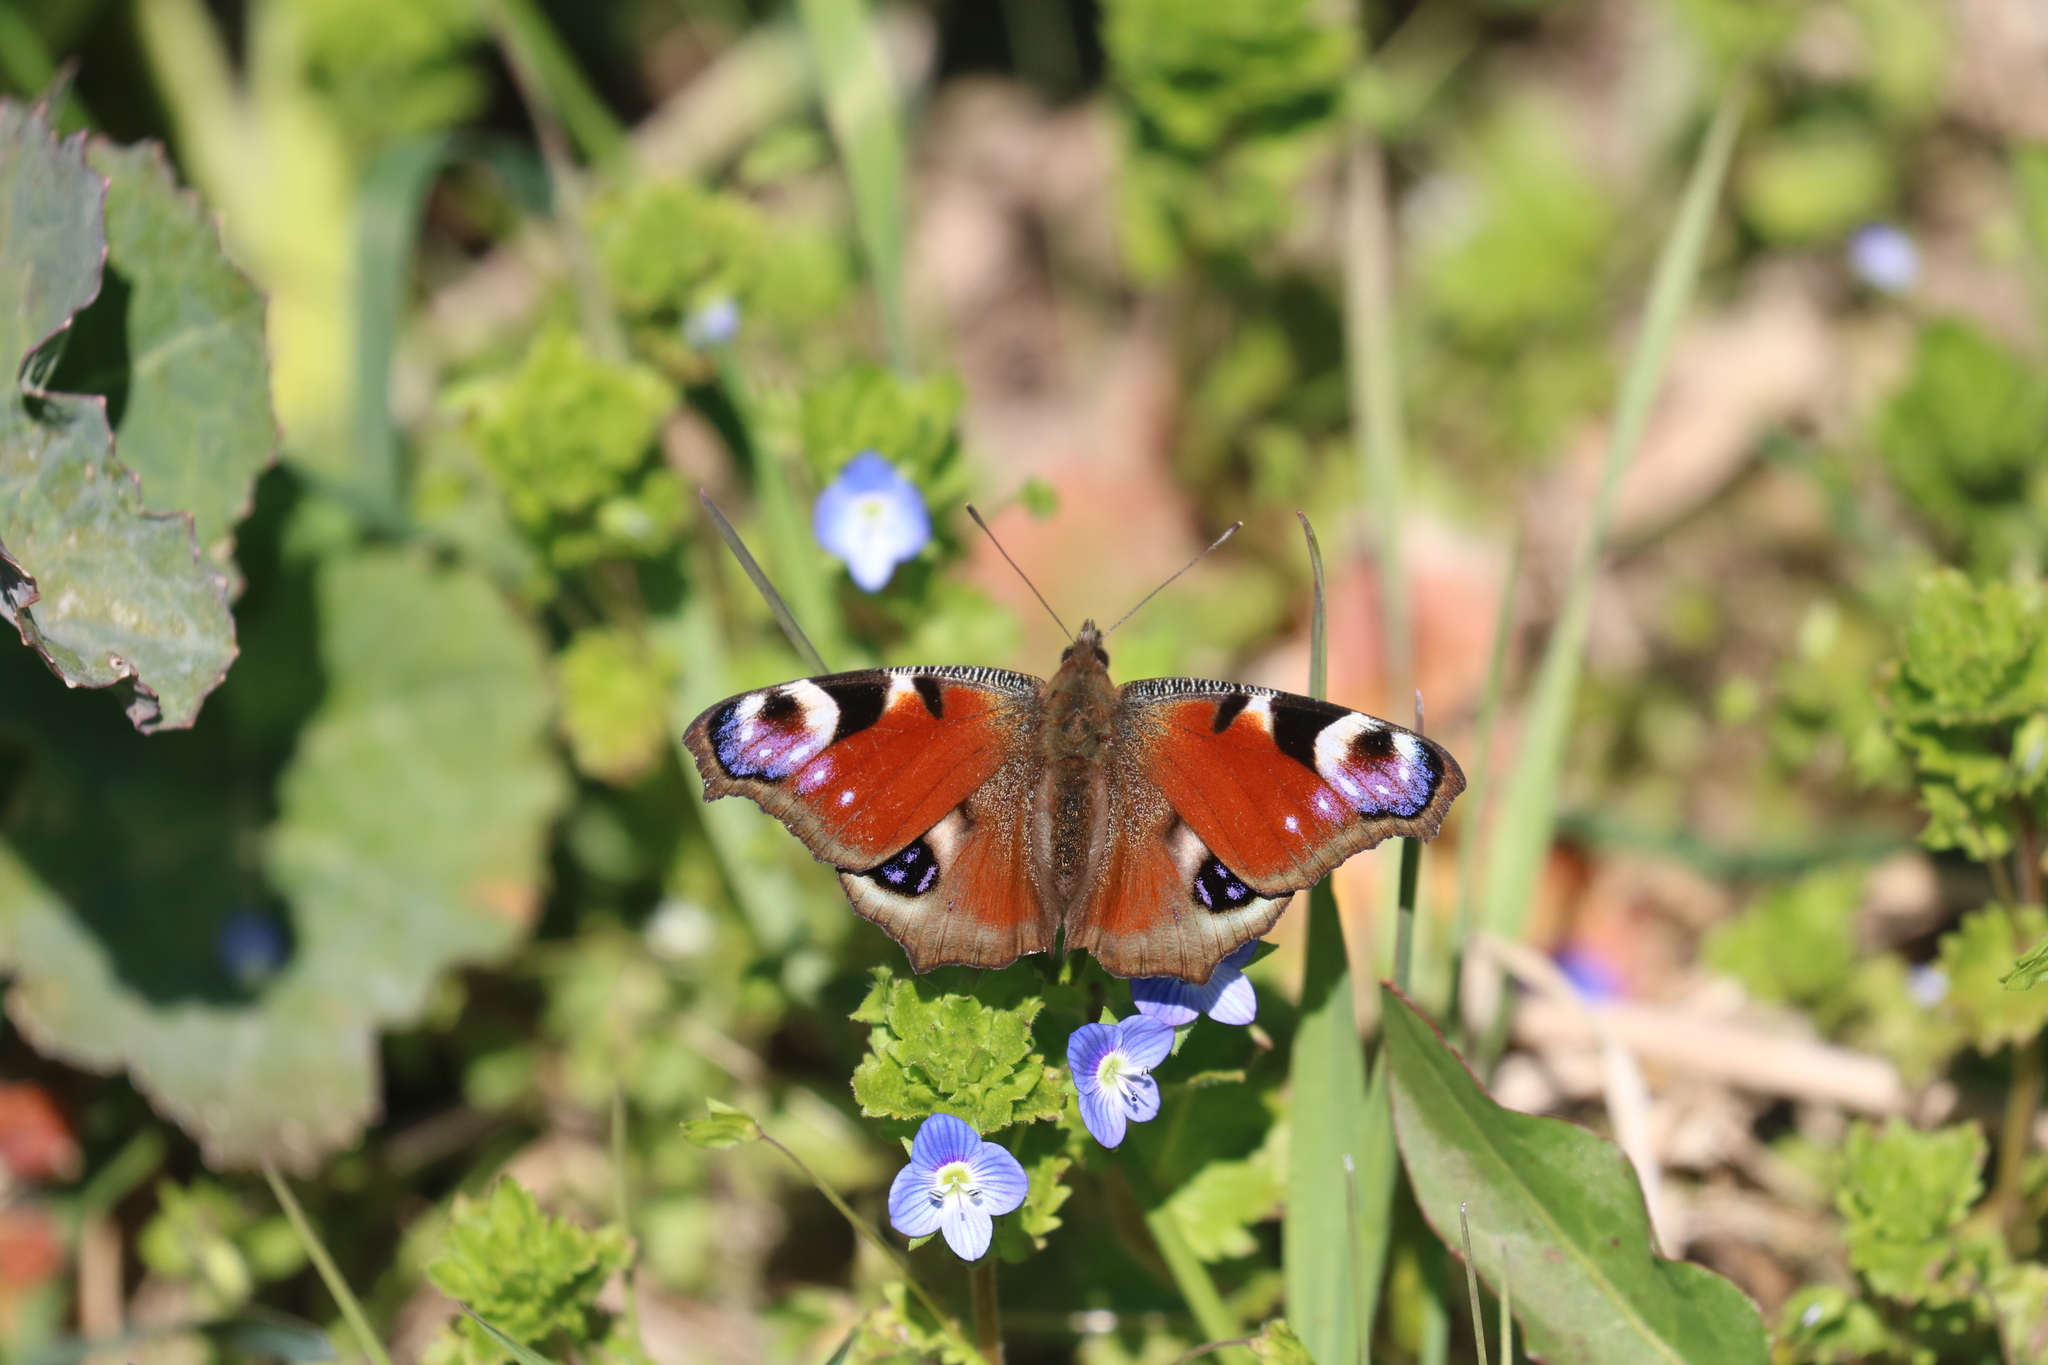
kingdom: Animalia
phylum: Arthropoda
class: Insecta
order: Lepidoptera
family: Nymphalidae
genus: Aglais
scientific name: Aglais io
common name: Peacock
